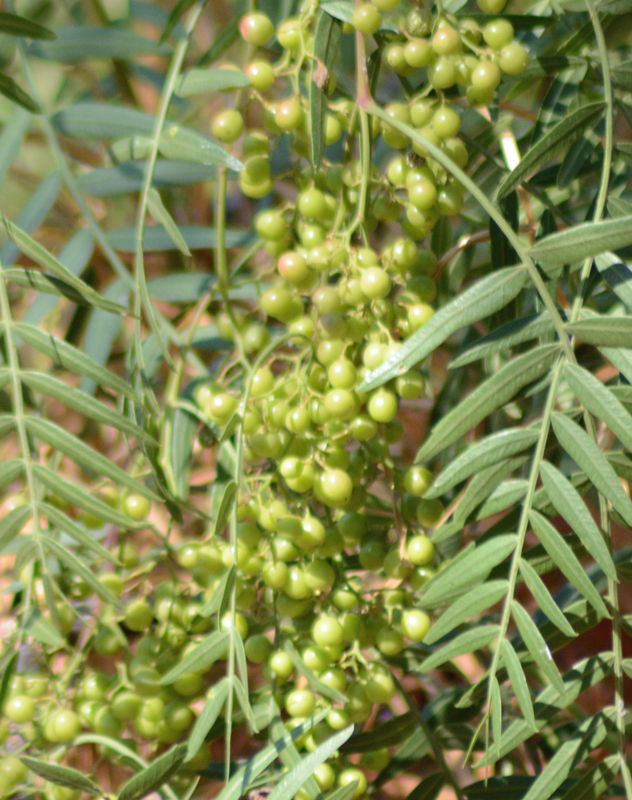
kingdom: Plantae
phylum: Tracheophyta
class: Magnoliopsida
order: Sapindales
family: Anacardiaceae
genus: Schinus
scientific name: Schinus molle
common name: Peruvian peppertree
